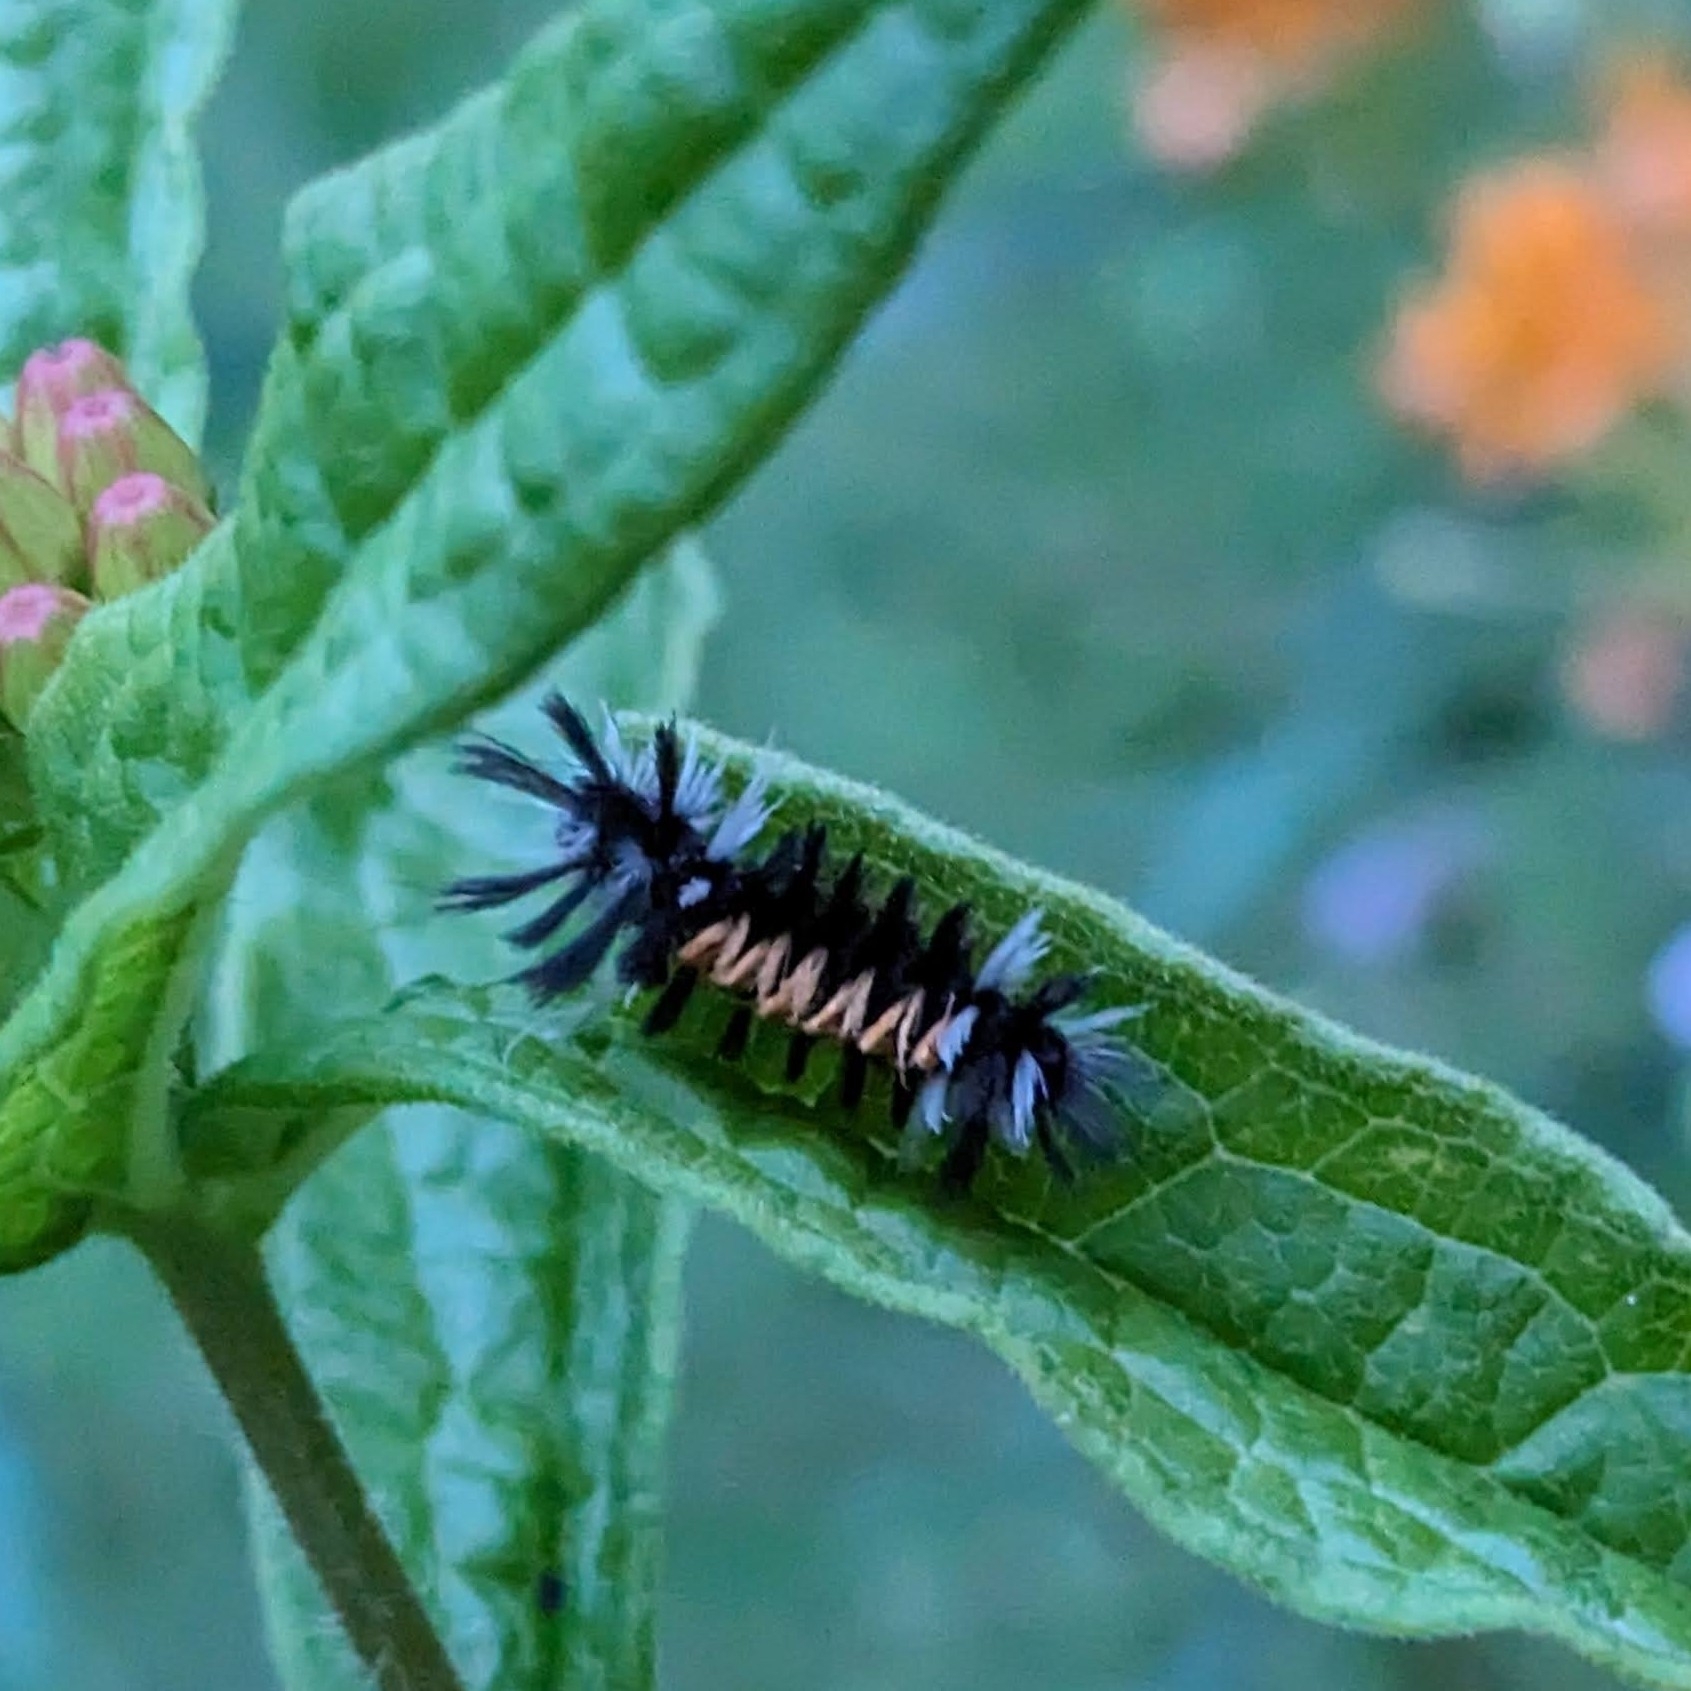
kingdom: Animalia
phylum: Arthropoda
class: Insecta
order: Lepidoptera
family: Erebidae
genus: Euchaetes
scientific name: Euchaetes egle
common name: Milkweed tussock moth
